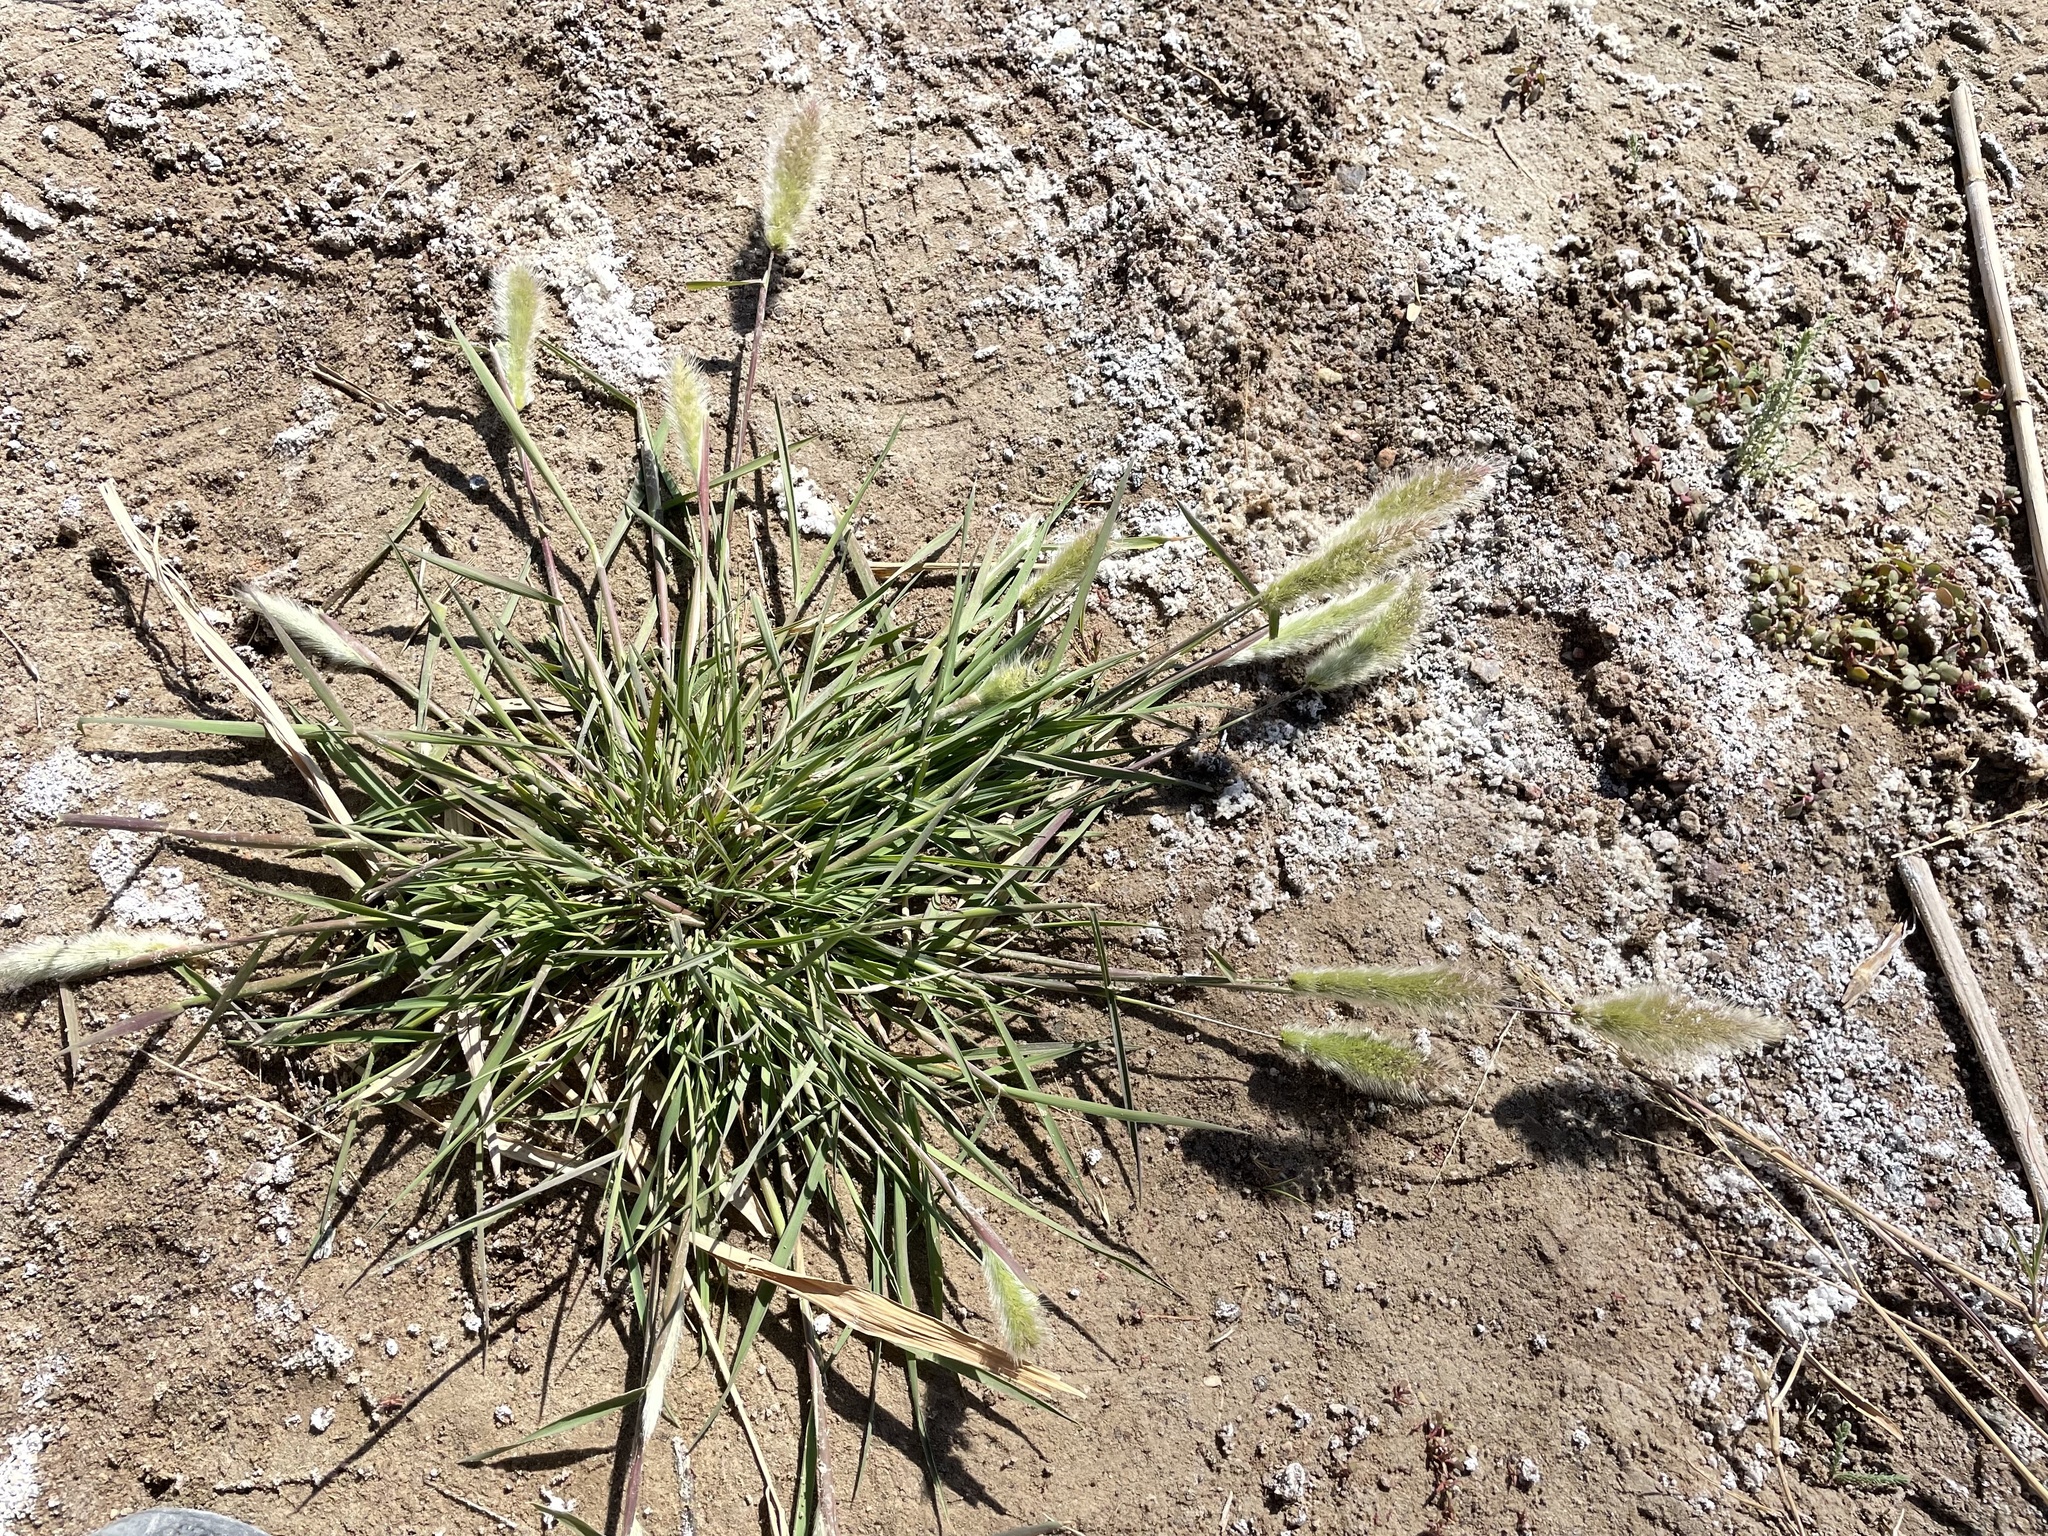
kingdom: Plantae
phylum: Tracheophyta
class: Liliopsida
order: Poales
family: Poaceae
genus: Polypogon
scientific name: Polypogon monspeliensis
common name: Annual rabbitsfoot grass
